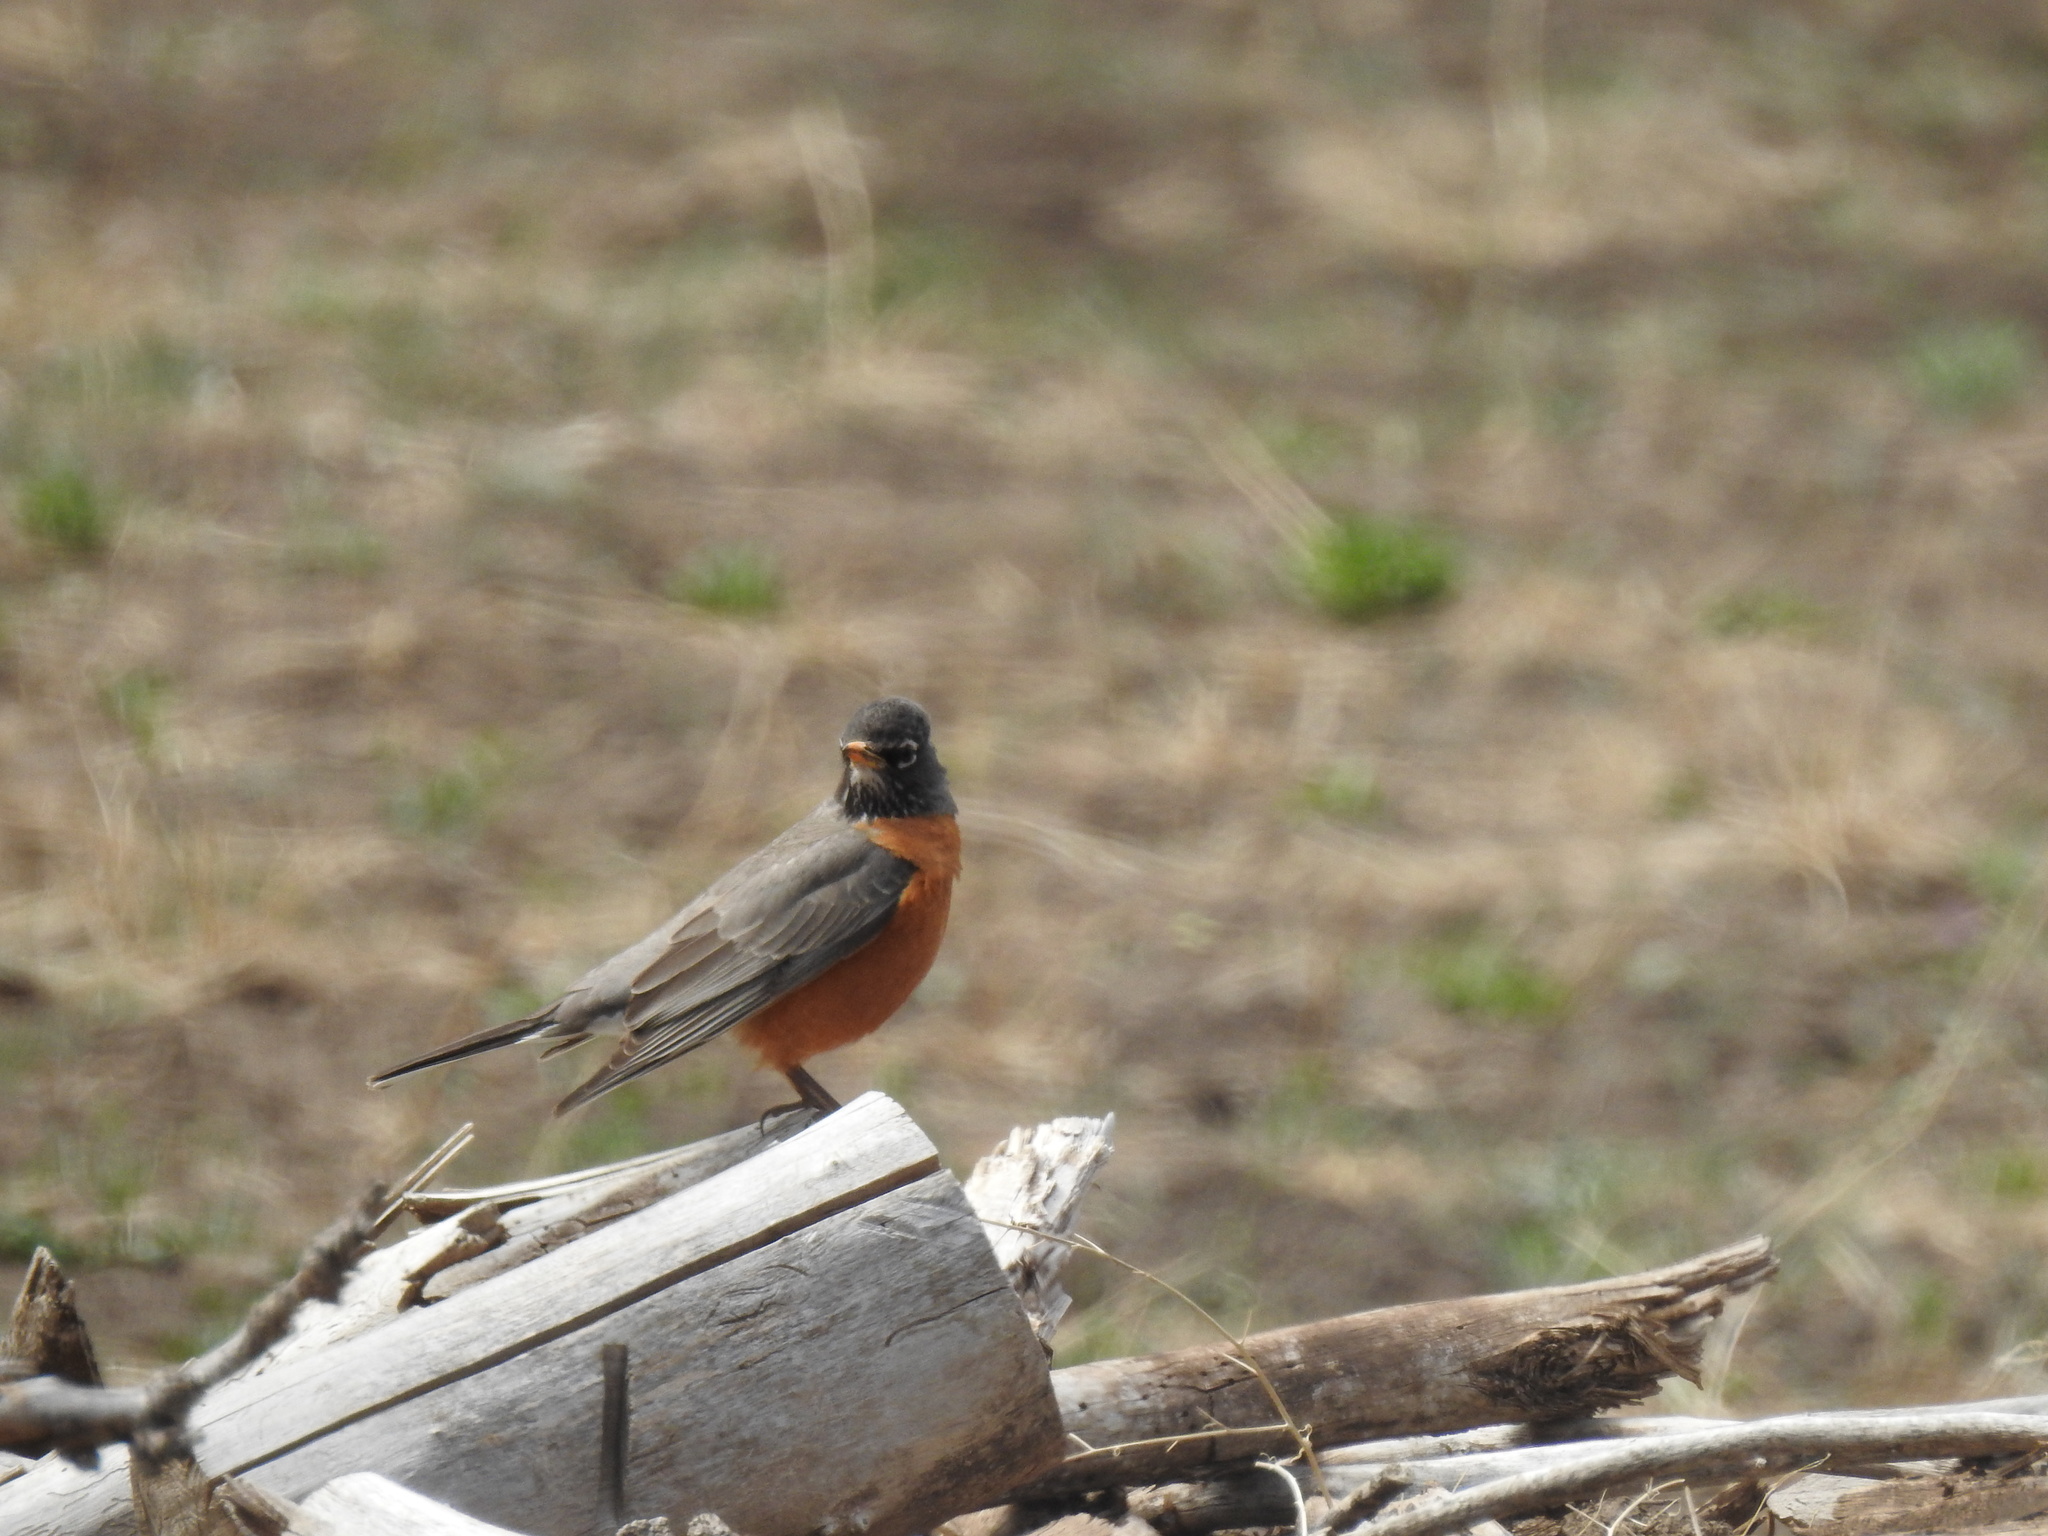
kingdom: Animalia
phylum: Chordata
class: Aves
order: Passeriformes
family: Turdidae
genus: Turdus
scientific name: Turdus migratorius
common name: American robin
